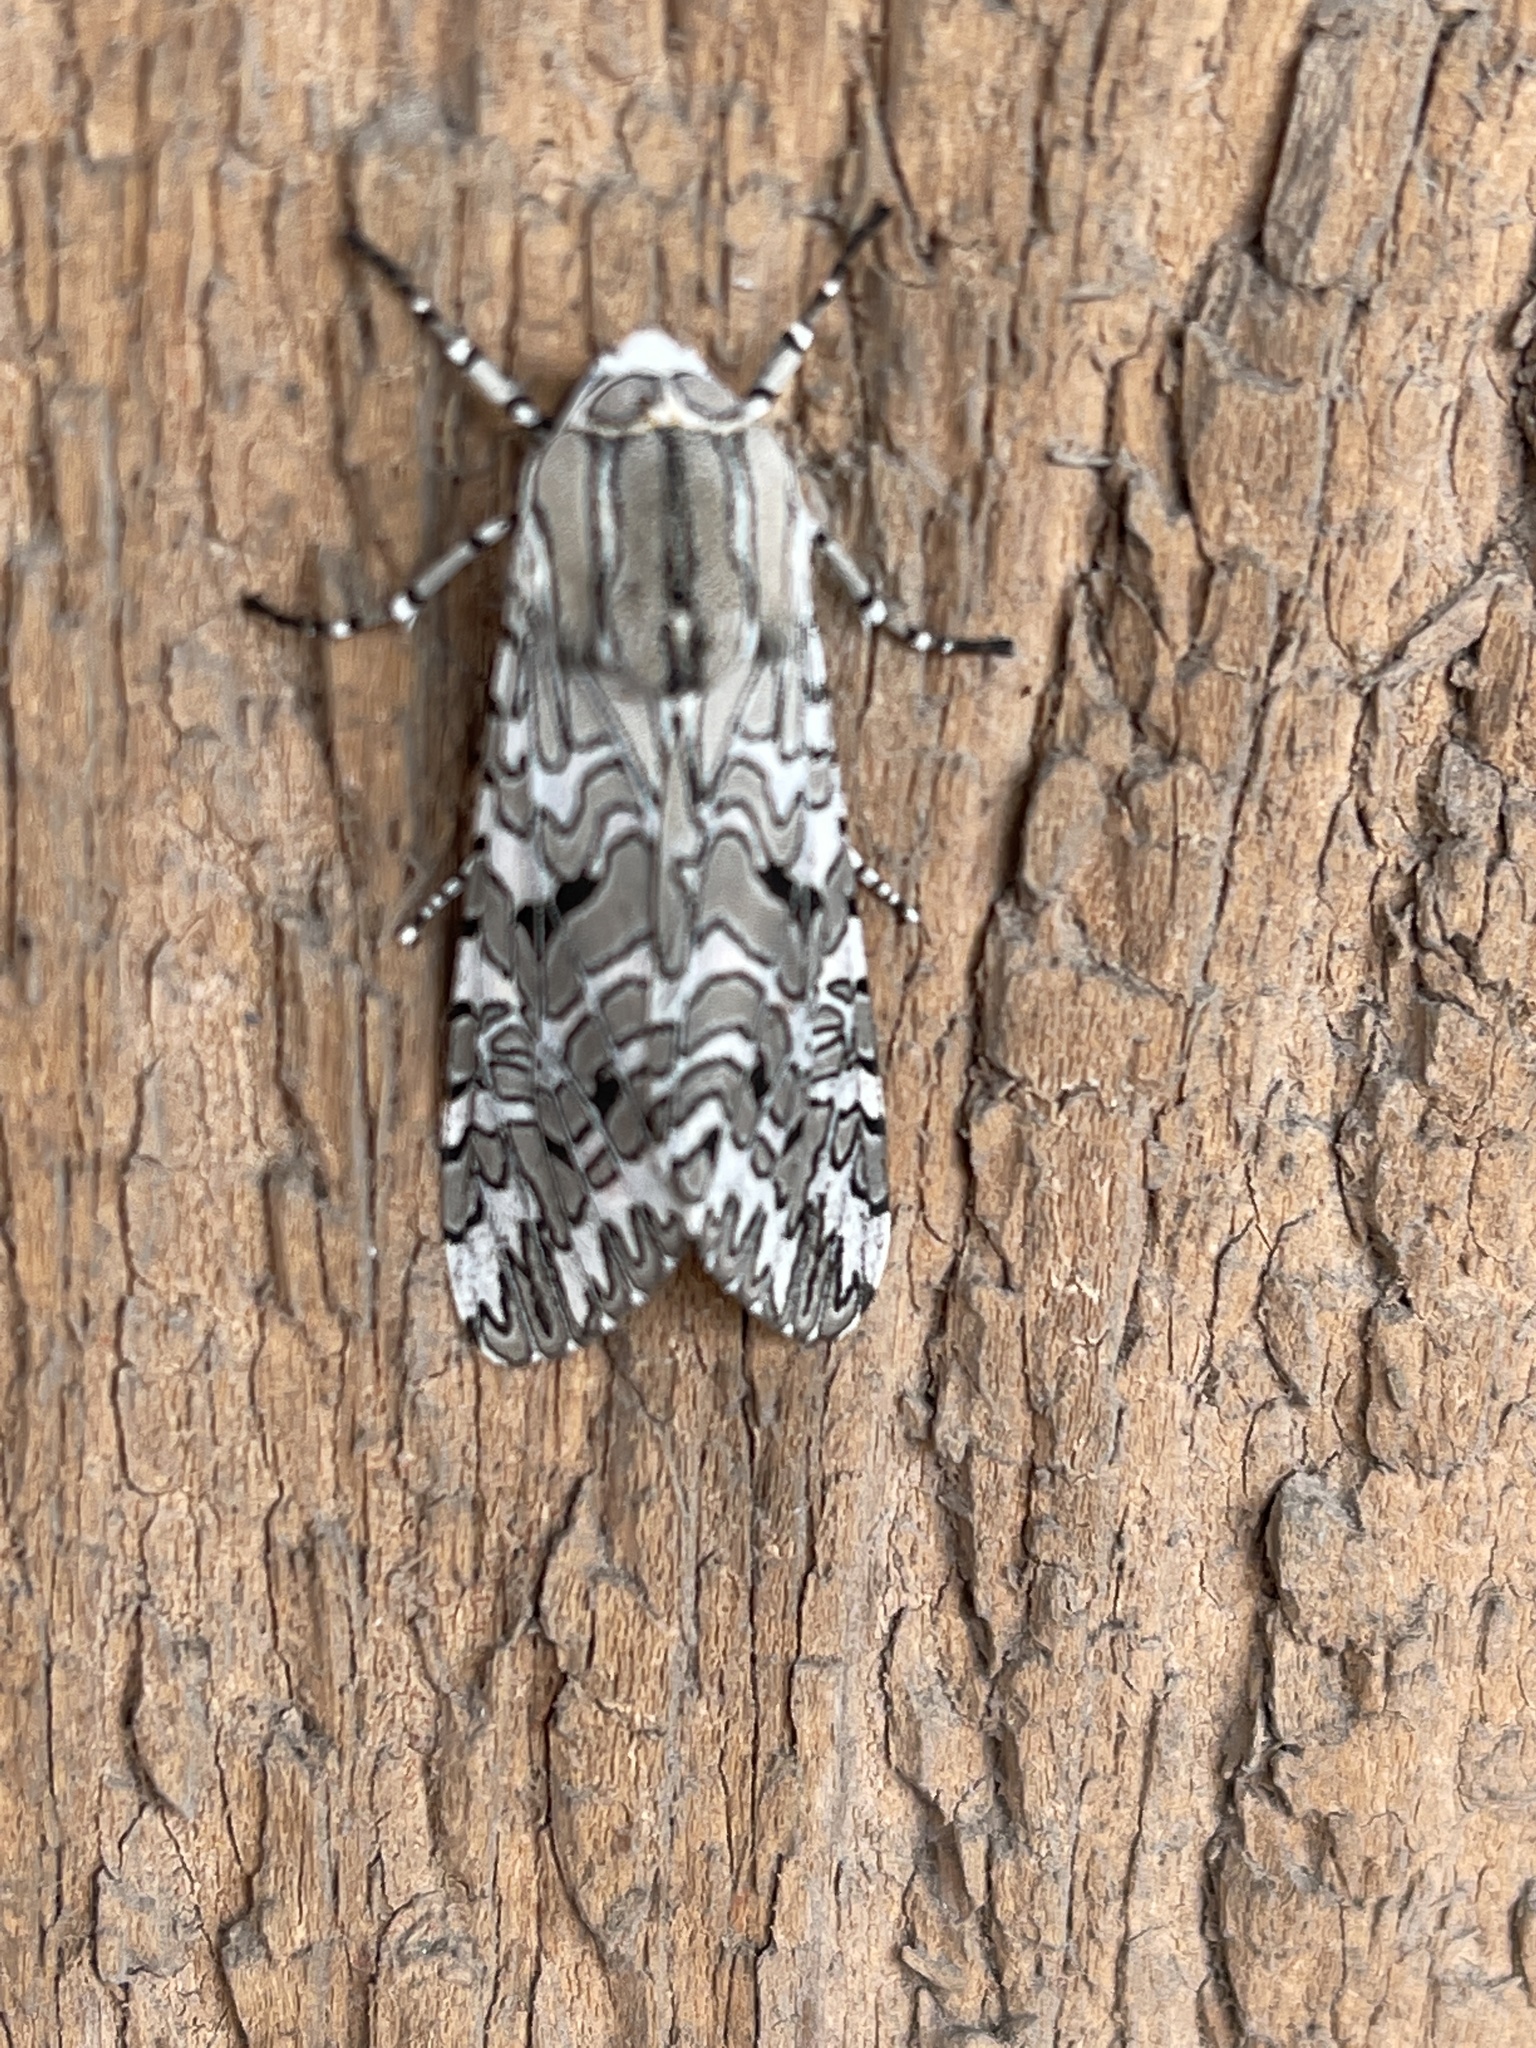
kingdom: Animalia
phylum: Arthropoda
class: Insecta
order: Lepidoptera
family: Erebidae
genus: Arachnis
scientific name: Arachnis picta
